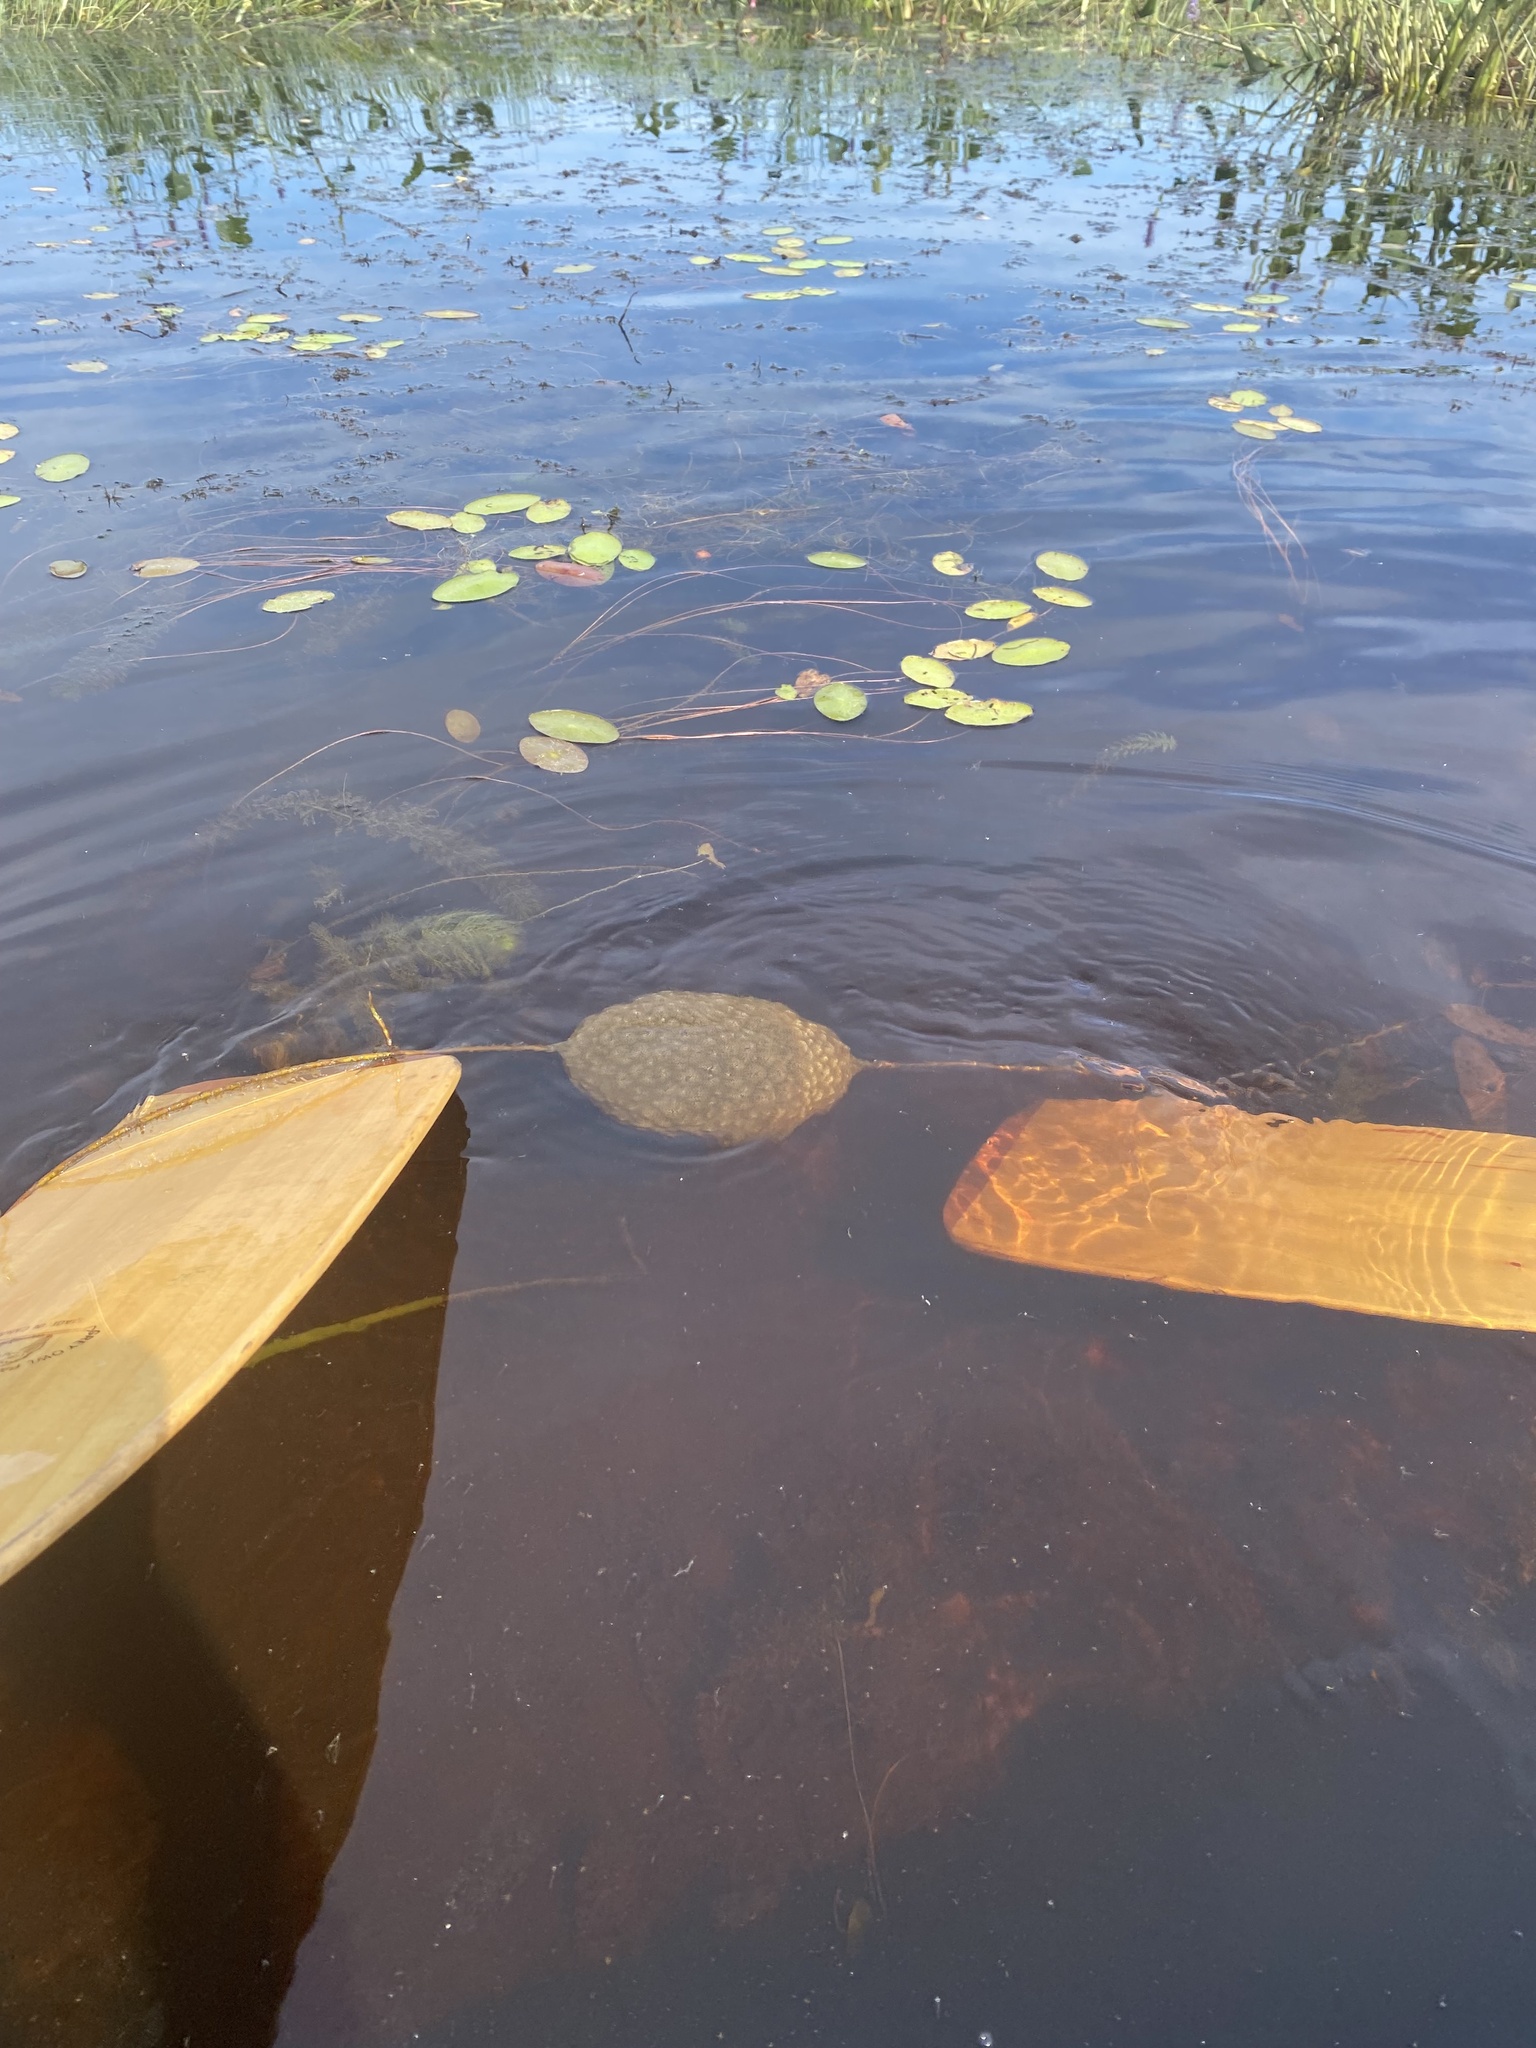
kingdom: Animalia
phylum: Bryozoa
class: Phylactolaemata
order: Plumatellida
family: Pectinatellidae
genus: Pectinatella
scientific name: Pectinatella magnifica
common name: Magnificent bryozoan
